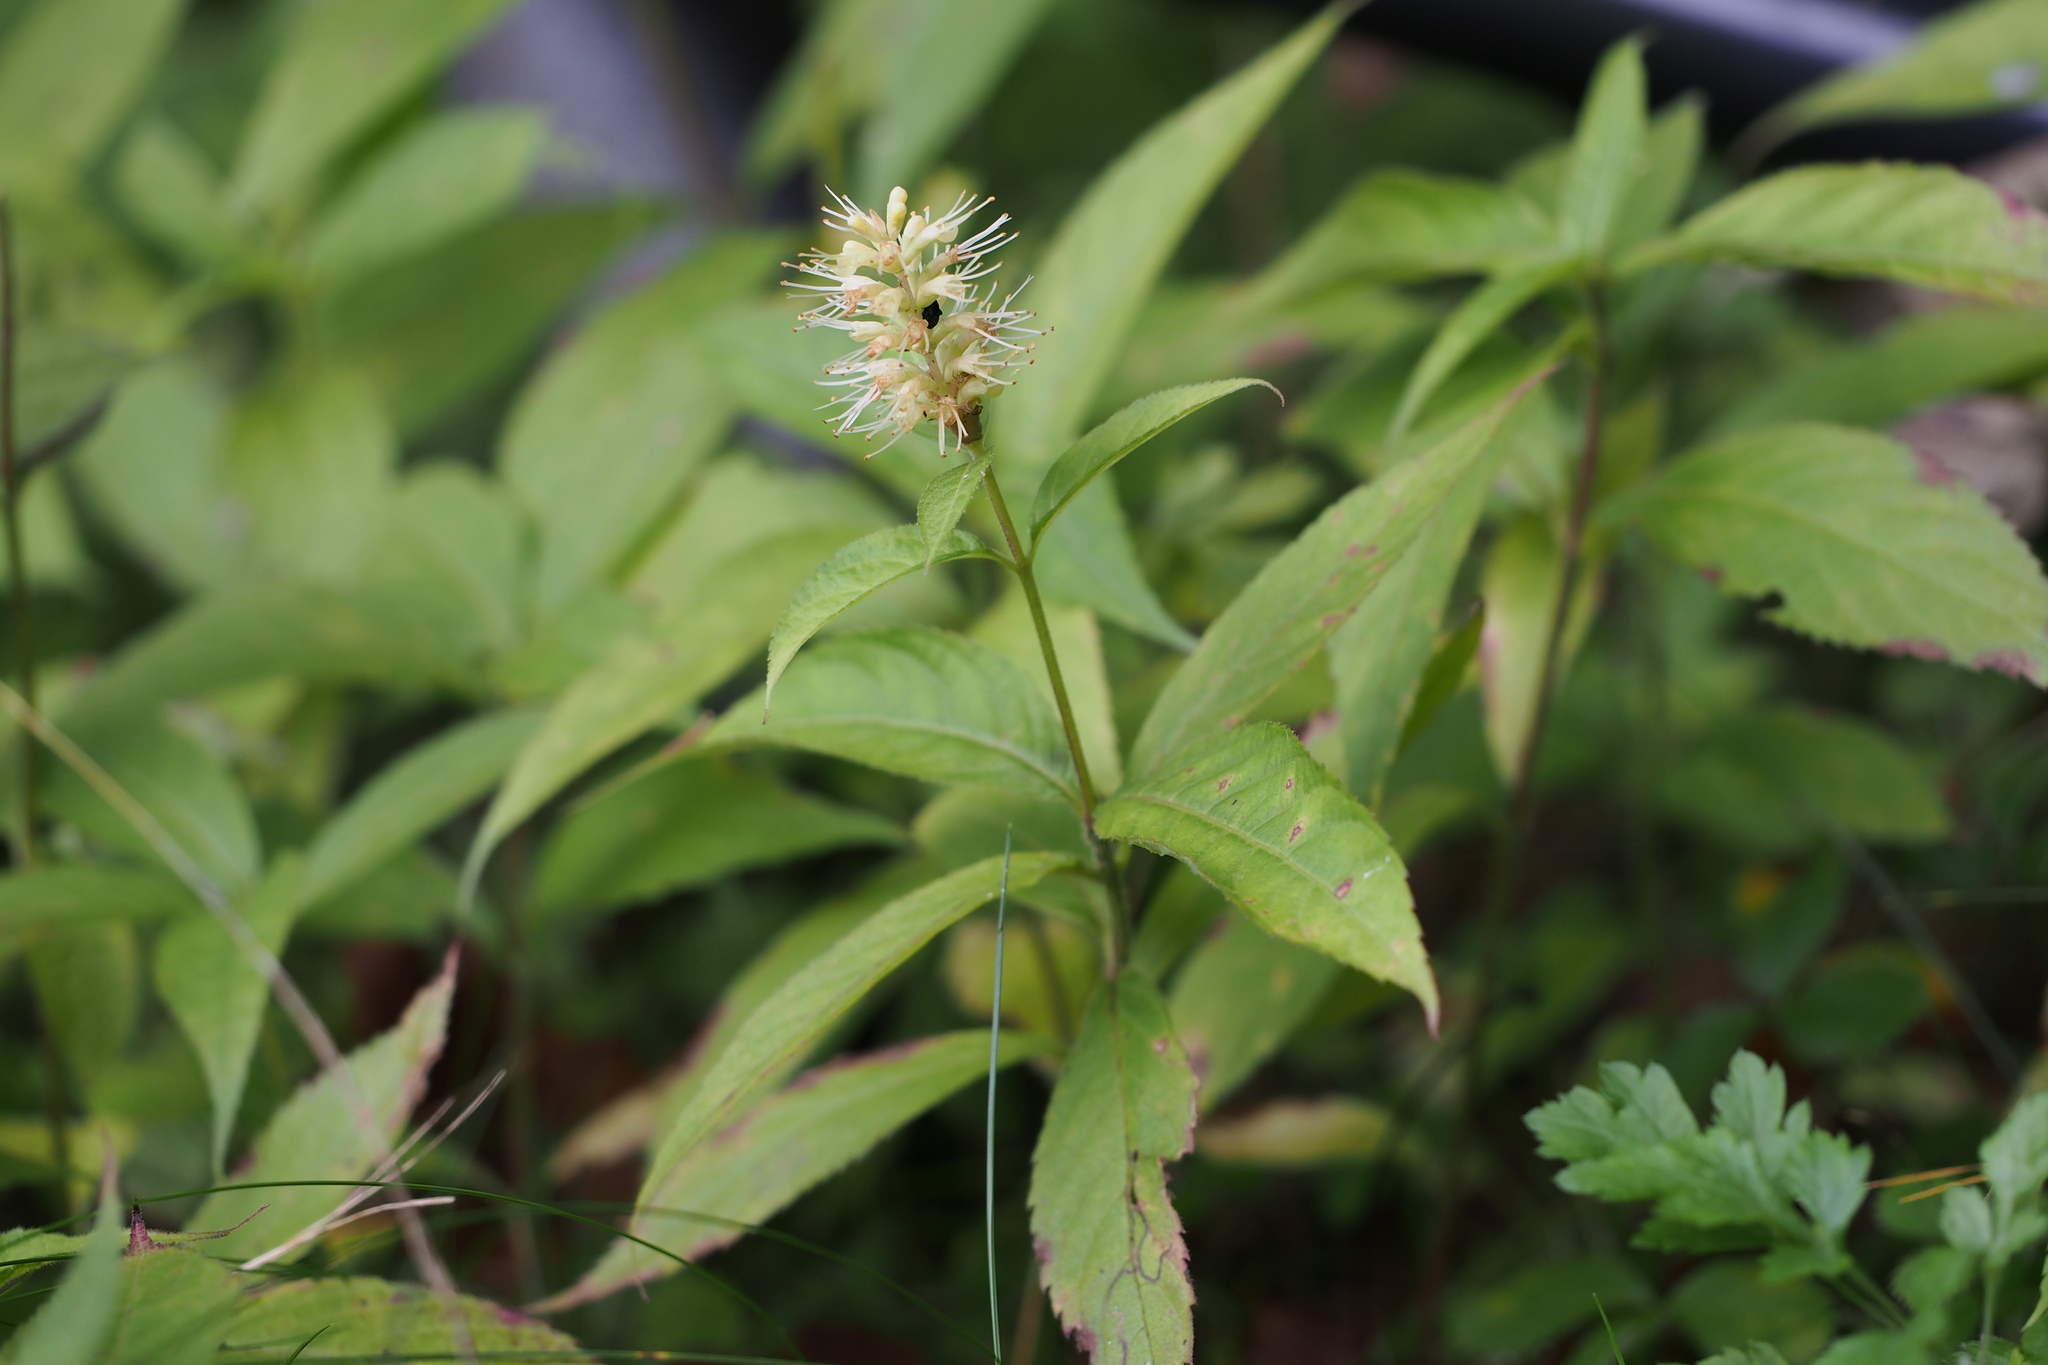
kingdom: Plantae
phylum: Tracheophyta
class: Magnoliopsida
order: Lamiales
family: Lamiaceae
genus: Comanthosphace
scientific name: Comanthosphace japonica
